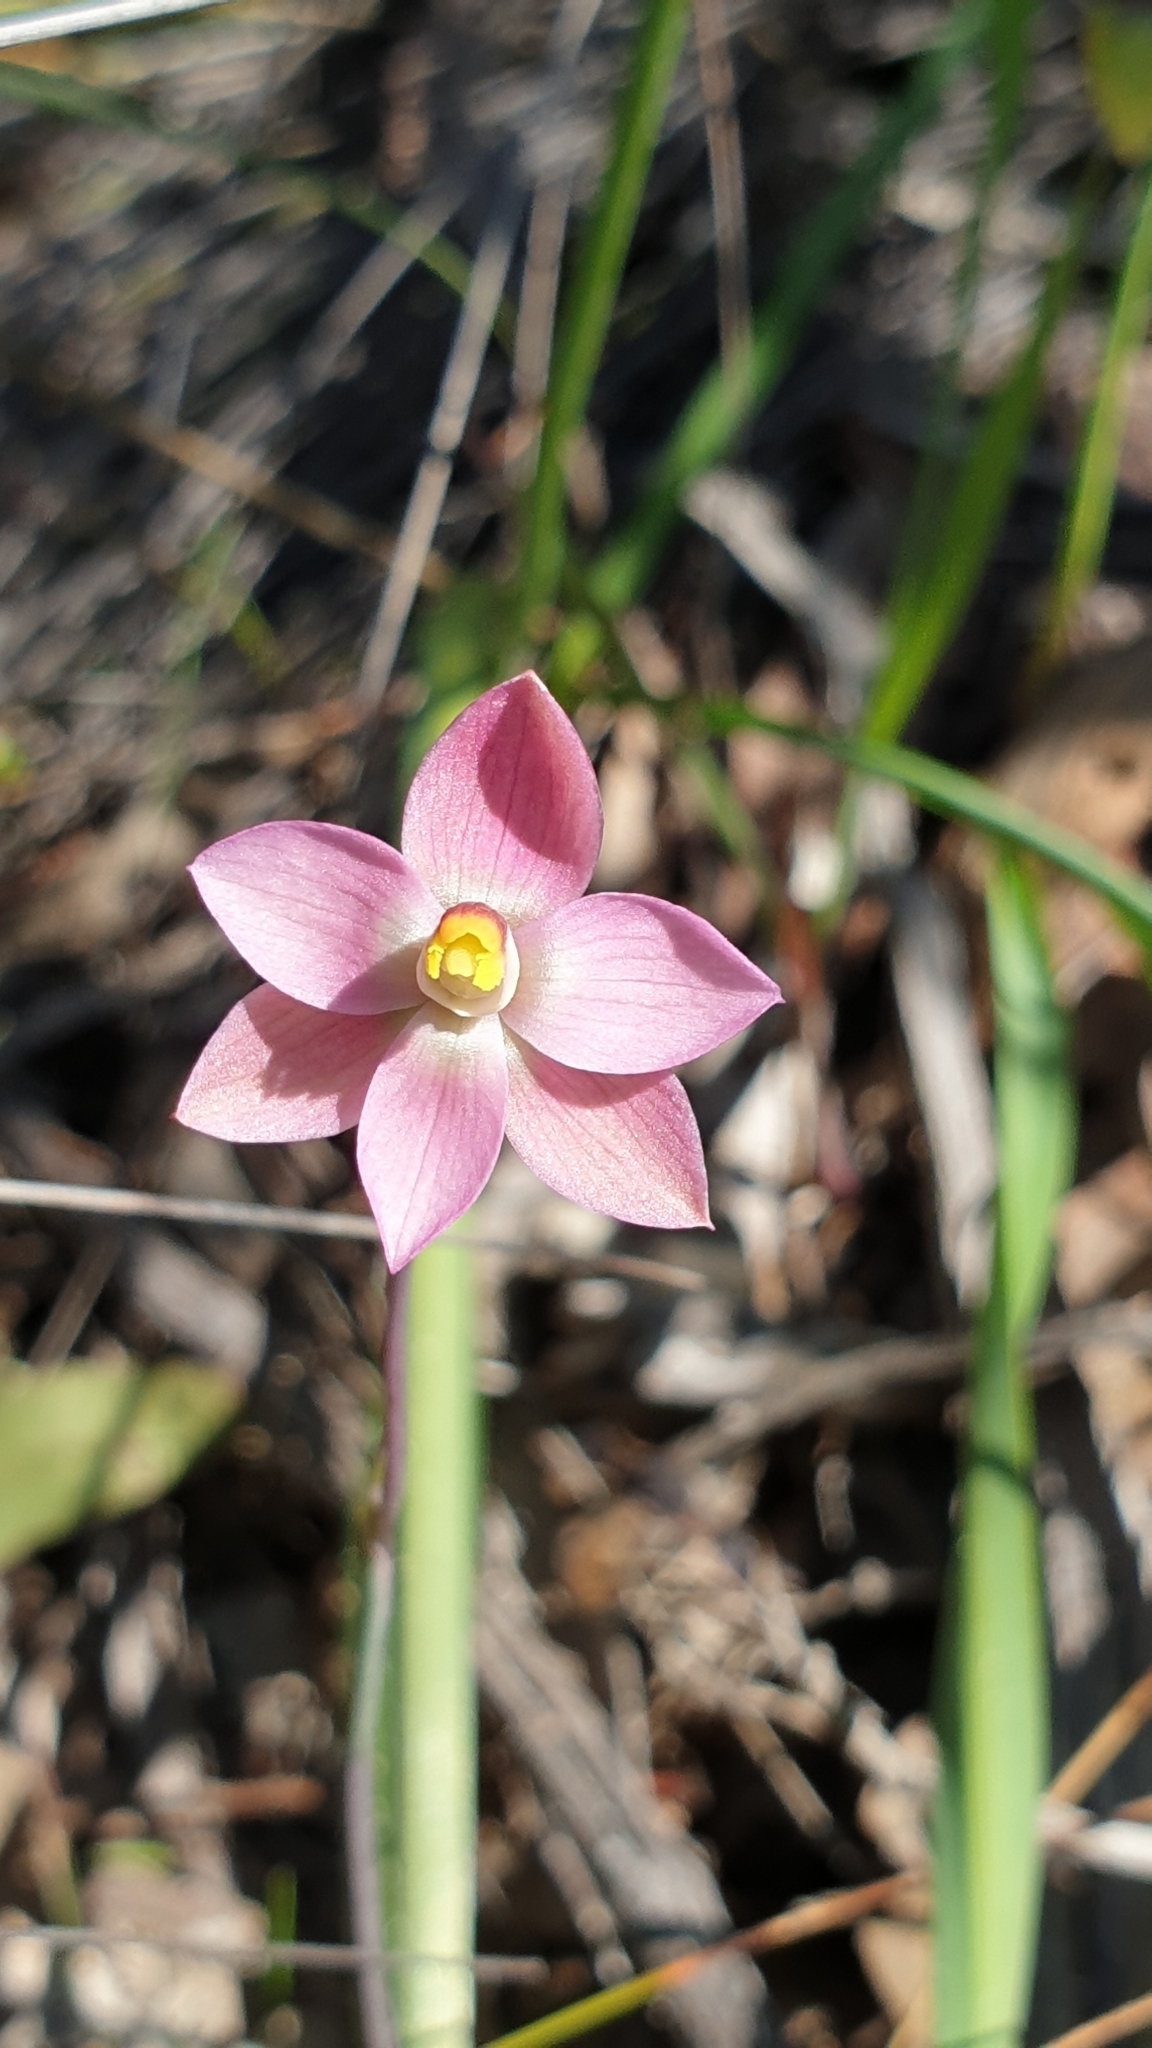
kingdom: Plantae
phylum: Tracheophyta
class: Liliopsida
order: Asparagales
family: Orchidaceae
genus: Thelymitra
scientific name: Thelymitra rubra
